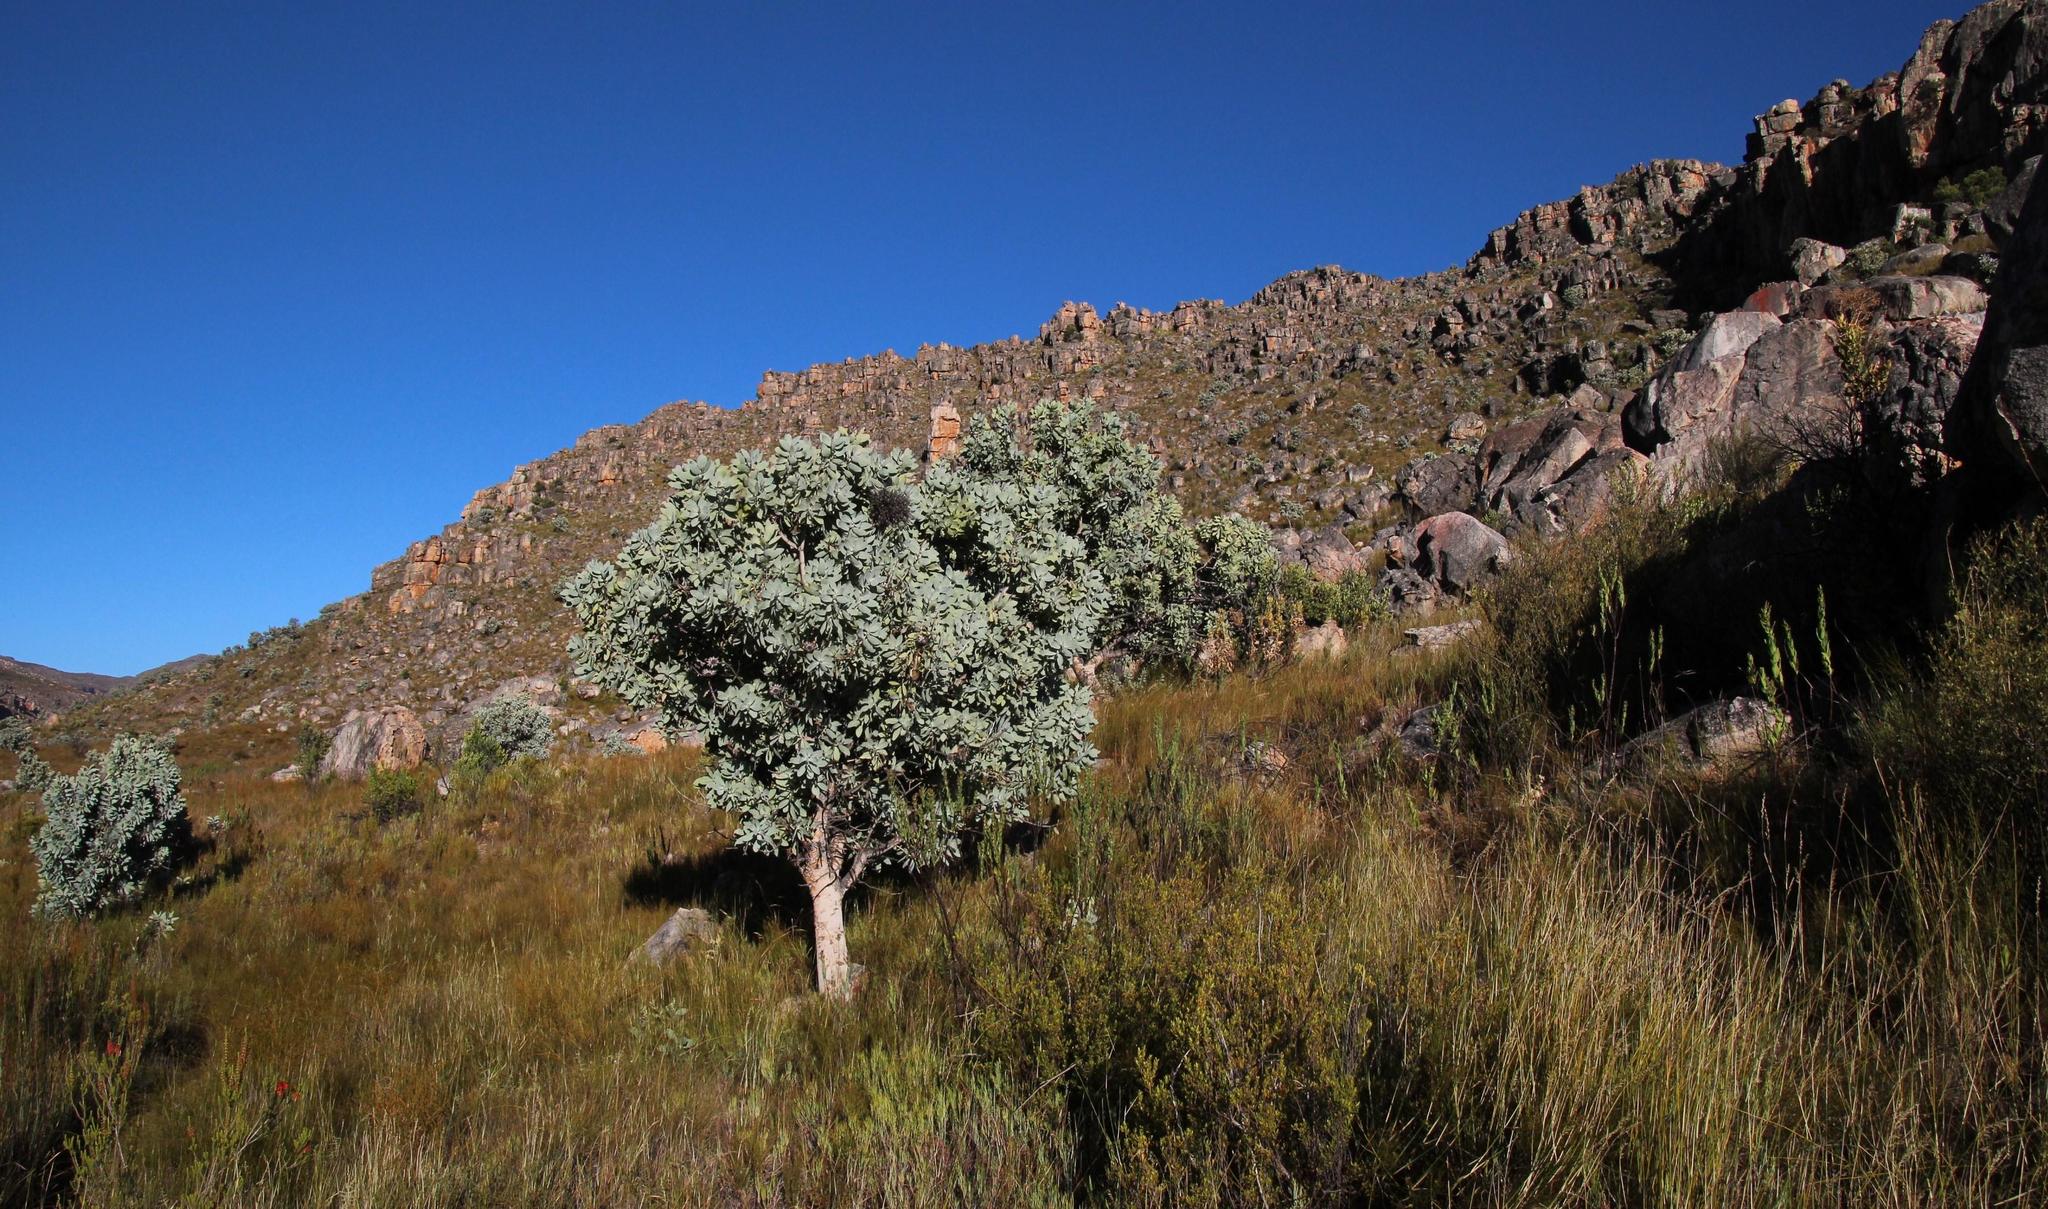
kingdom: Plantae
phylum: Tracheophyta
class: Magnoliopsida
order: Proteales
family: Proteaceae
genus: Protea
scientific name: Protea nitida
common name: Tree protea
